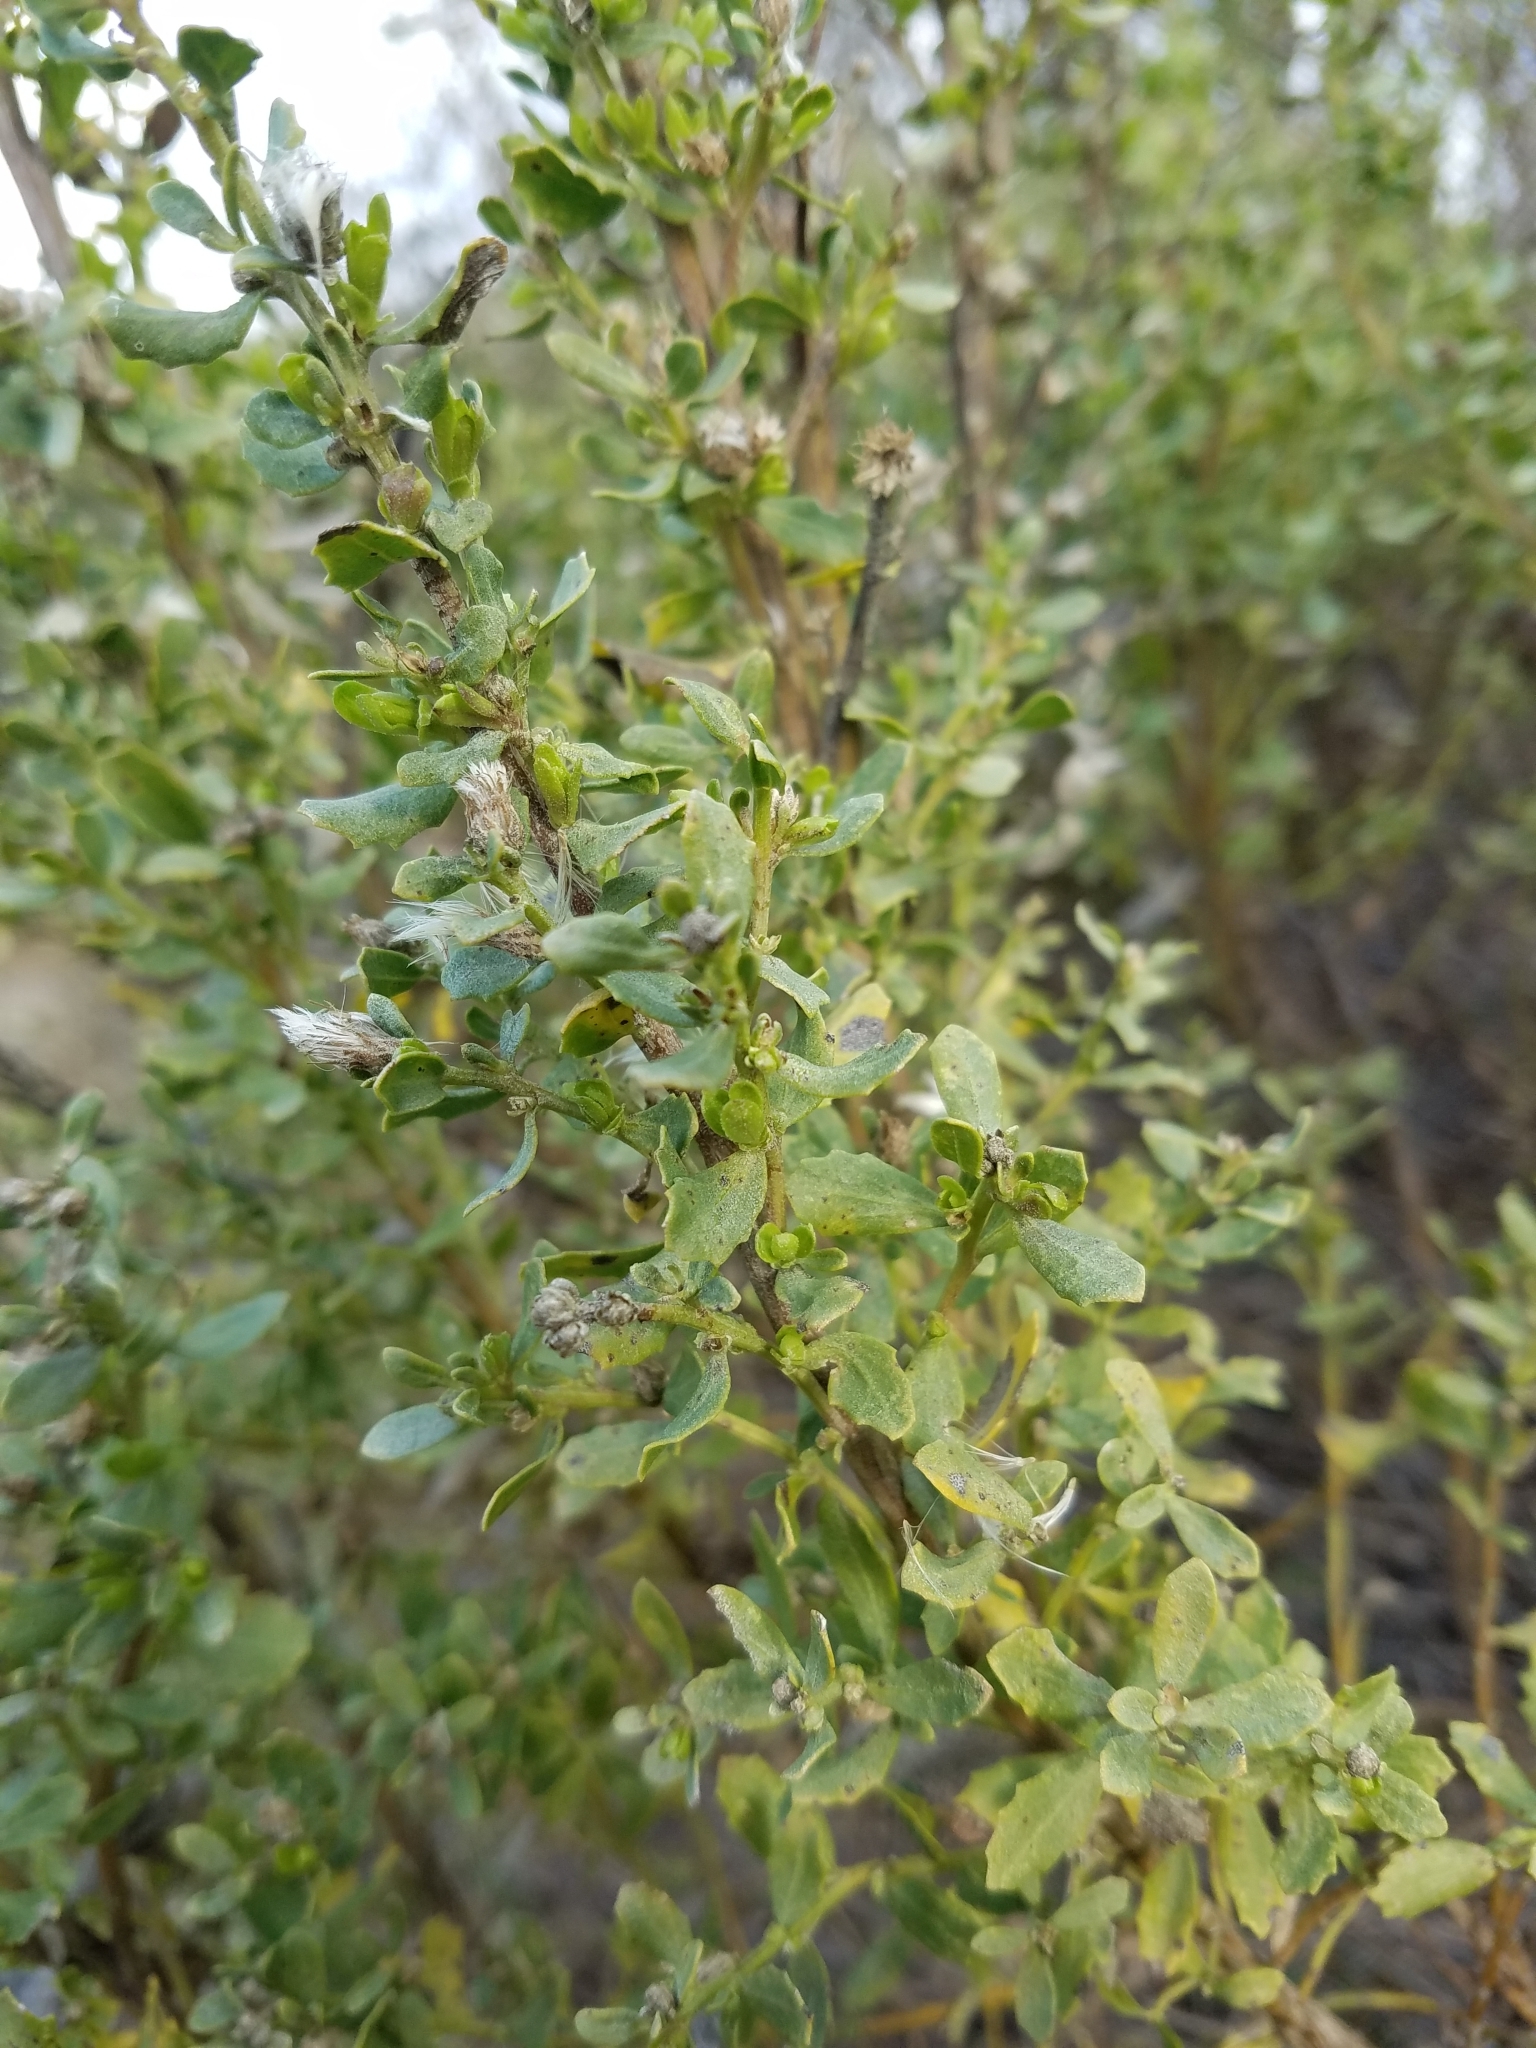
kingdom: Plantae
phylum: Tracheophyta
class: Magnoliopsida
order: Asterales
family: Asteraceae
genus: Baccharis
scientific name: Baccharis pilularis
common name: Coyotebrush
